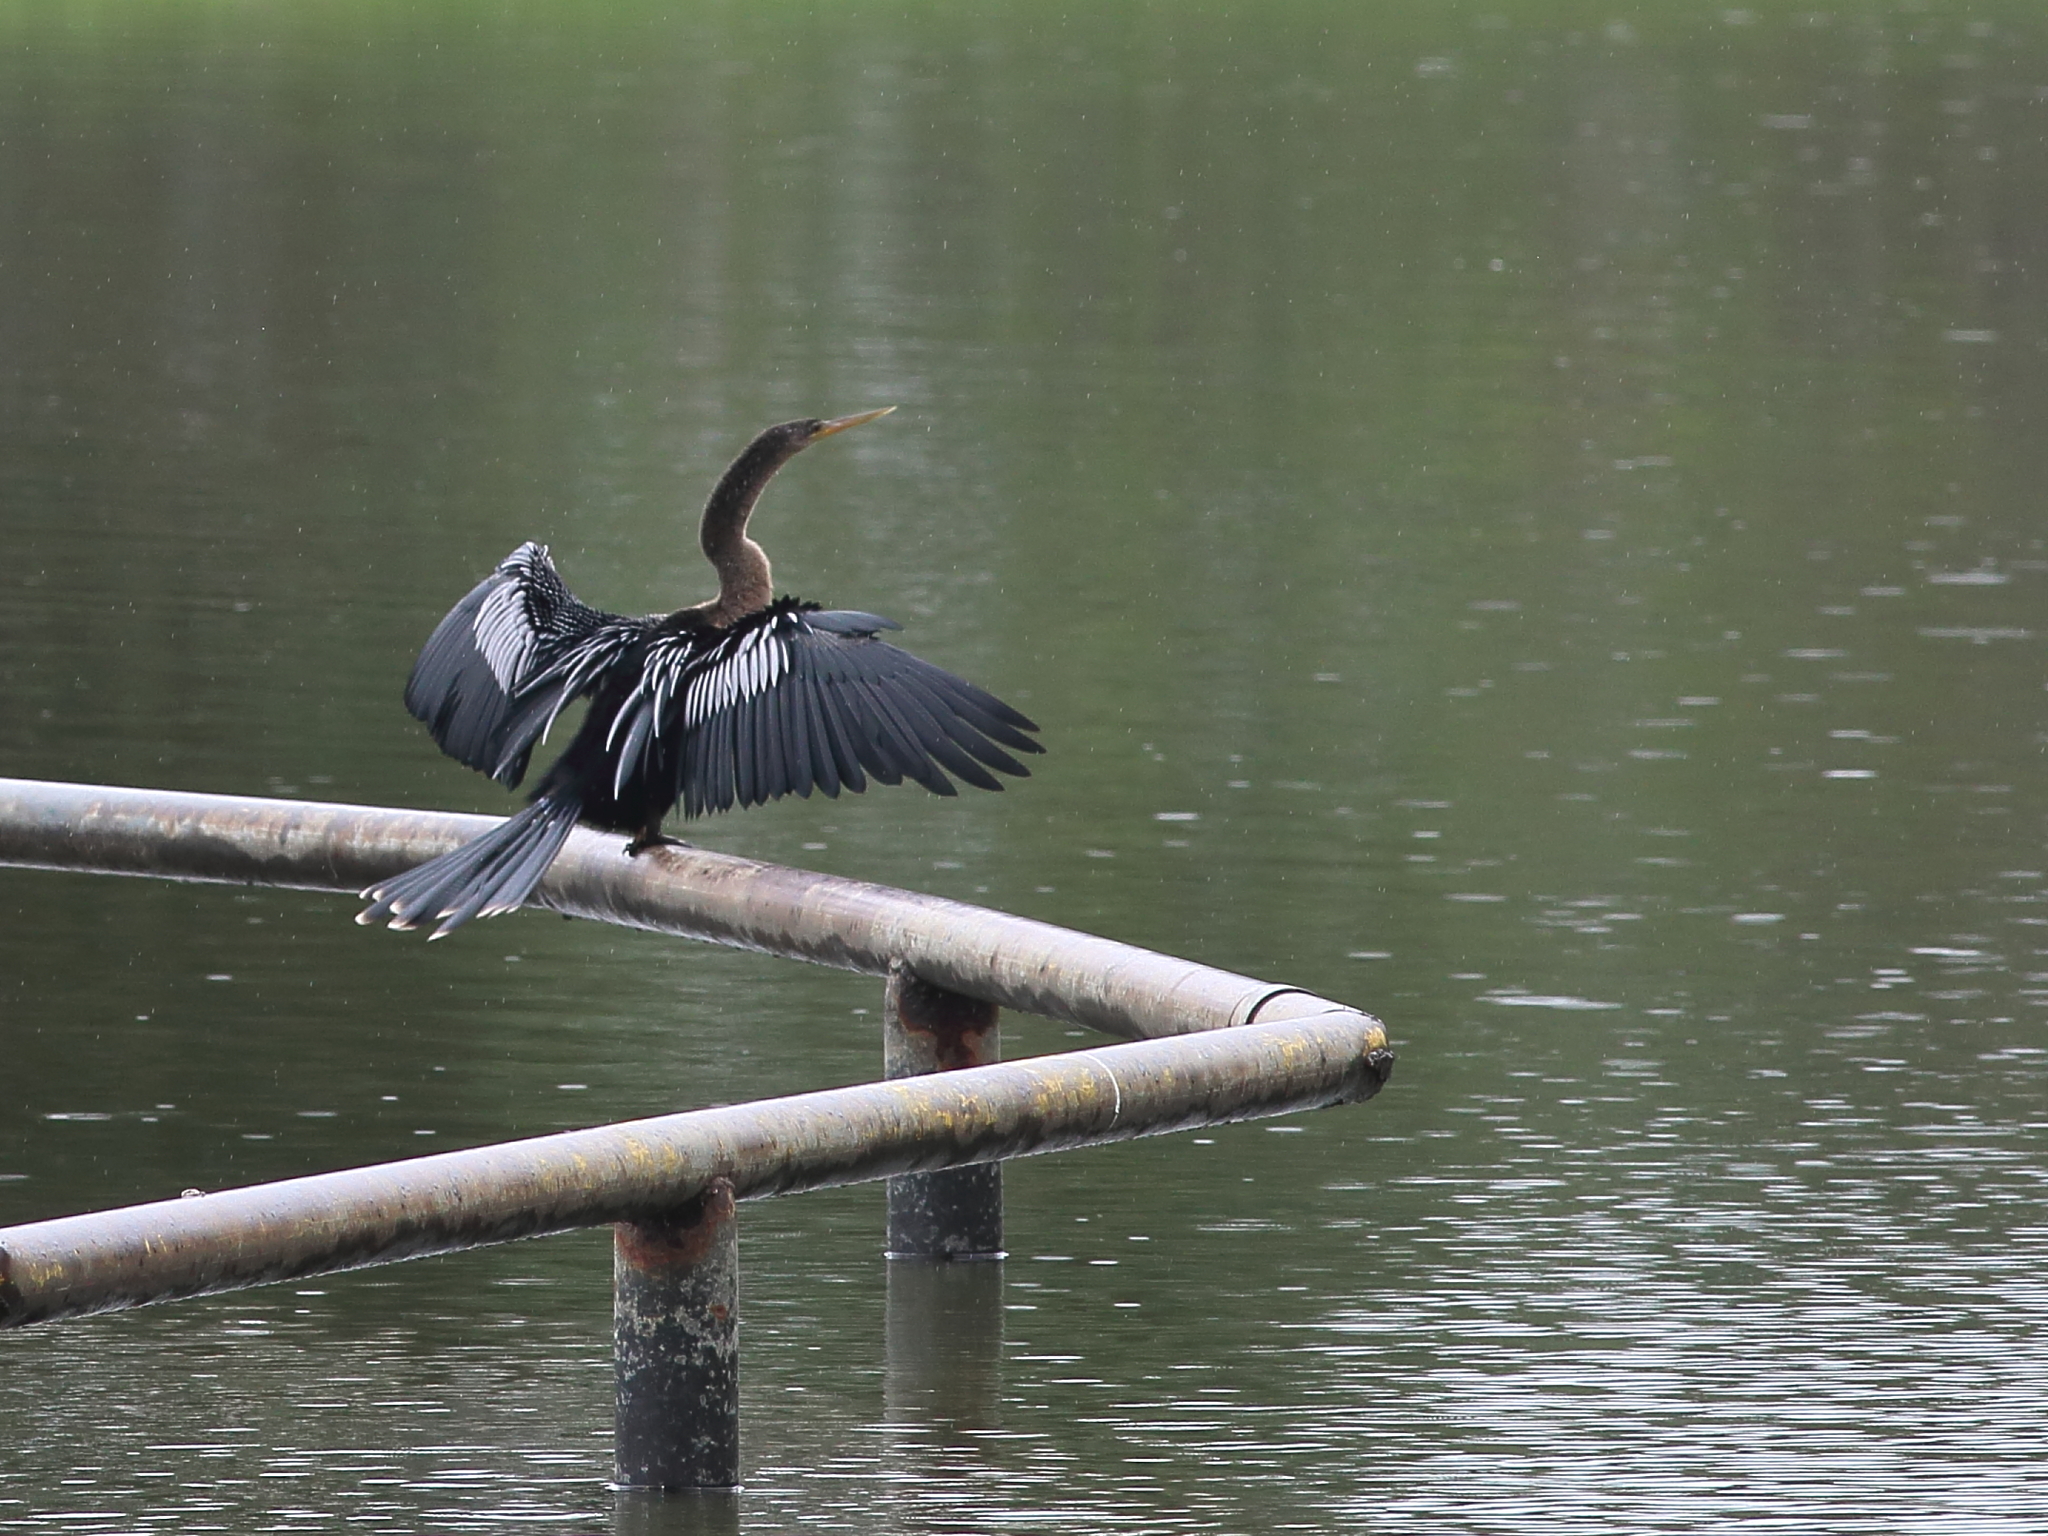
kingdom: Animalia
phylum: Chordata
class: Aves
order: Suliformes
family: Anhingidae
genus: Anhinga
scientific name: Anhinga anhinga
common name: Anhinga
